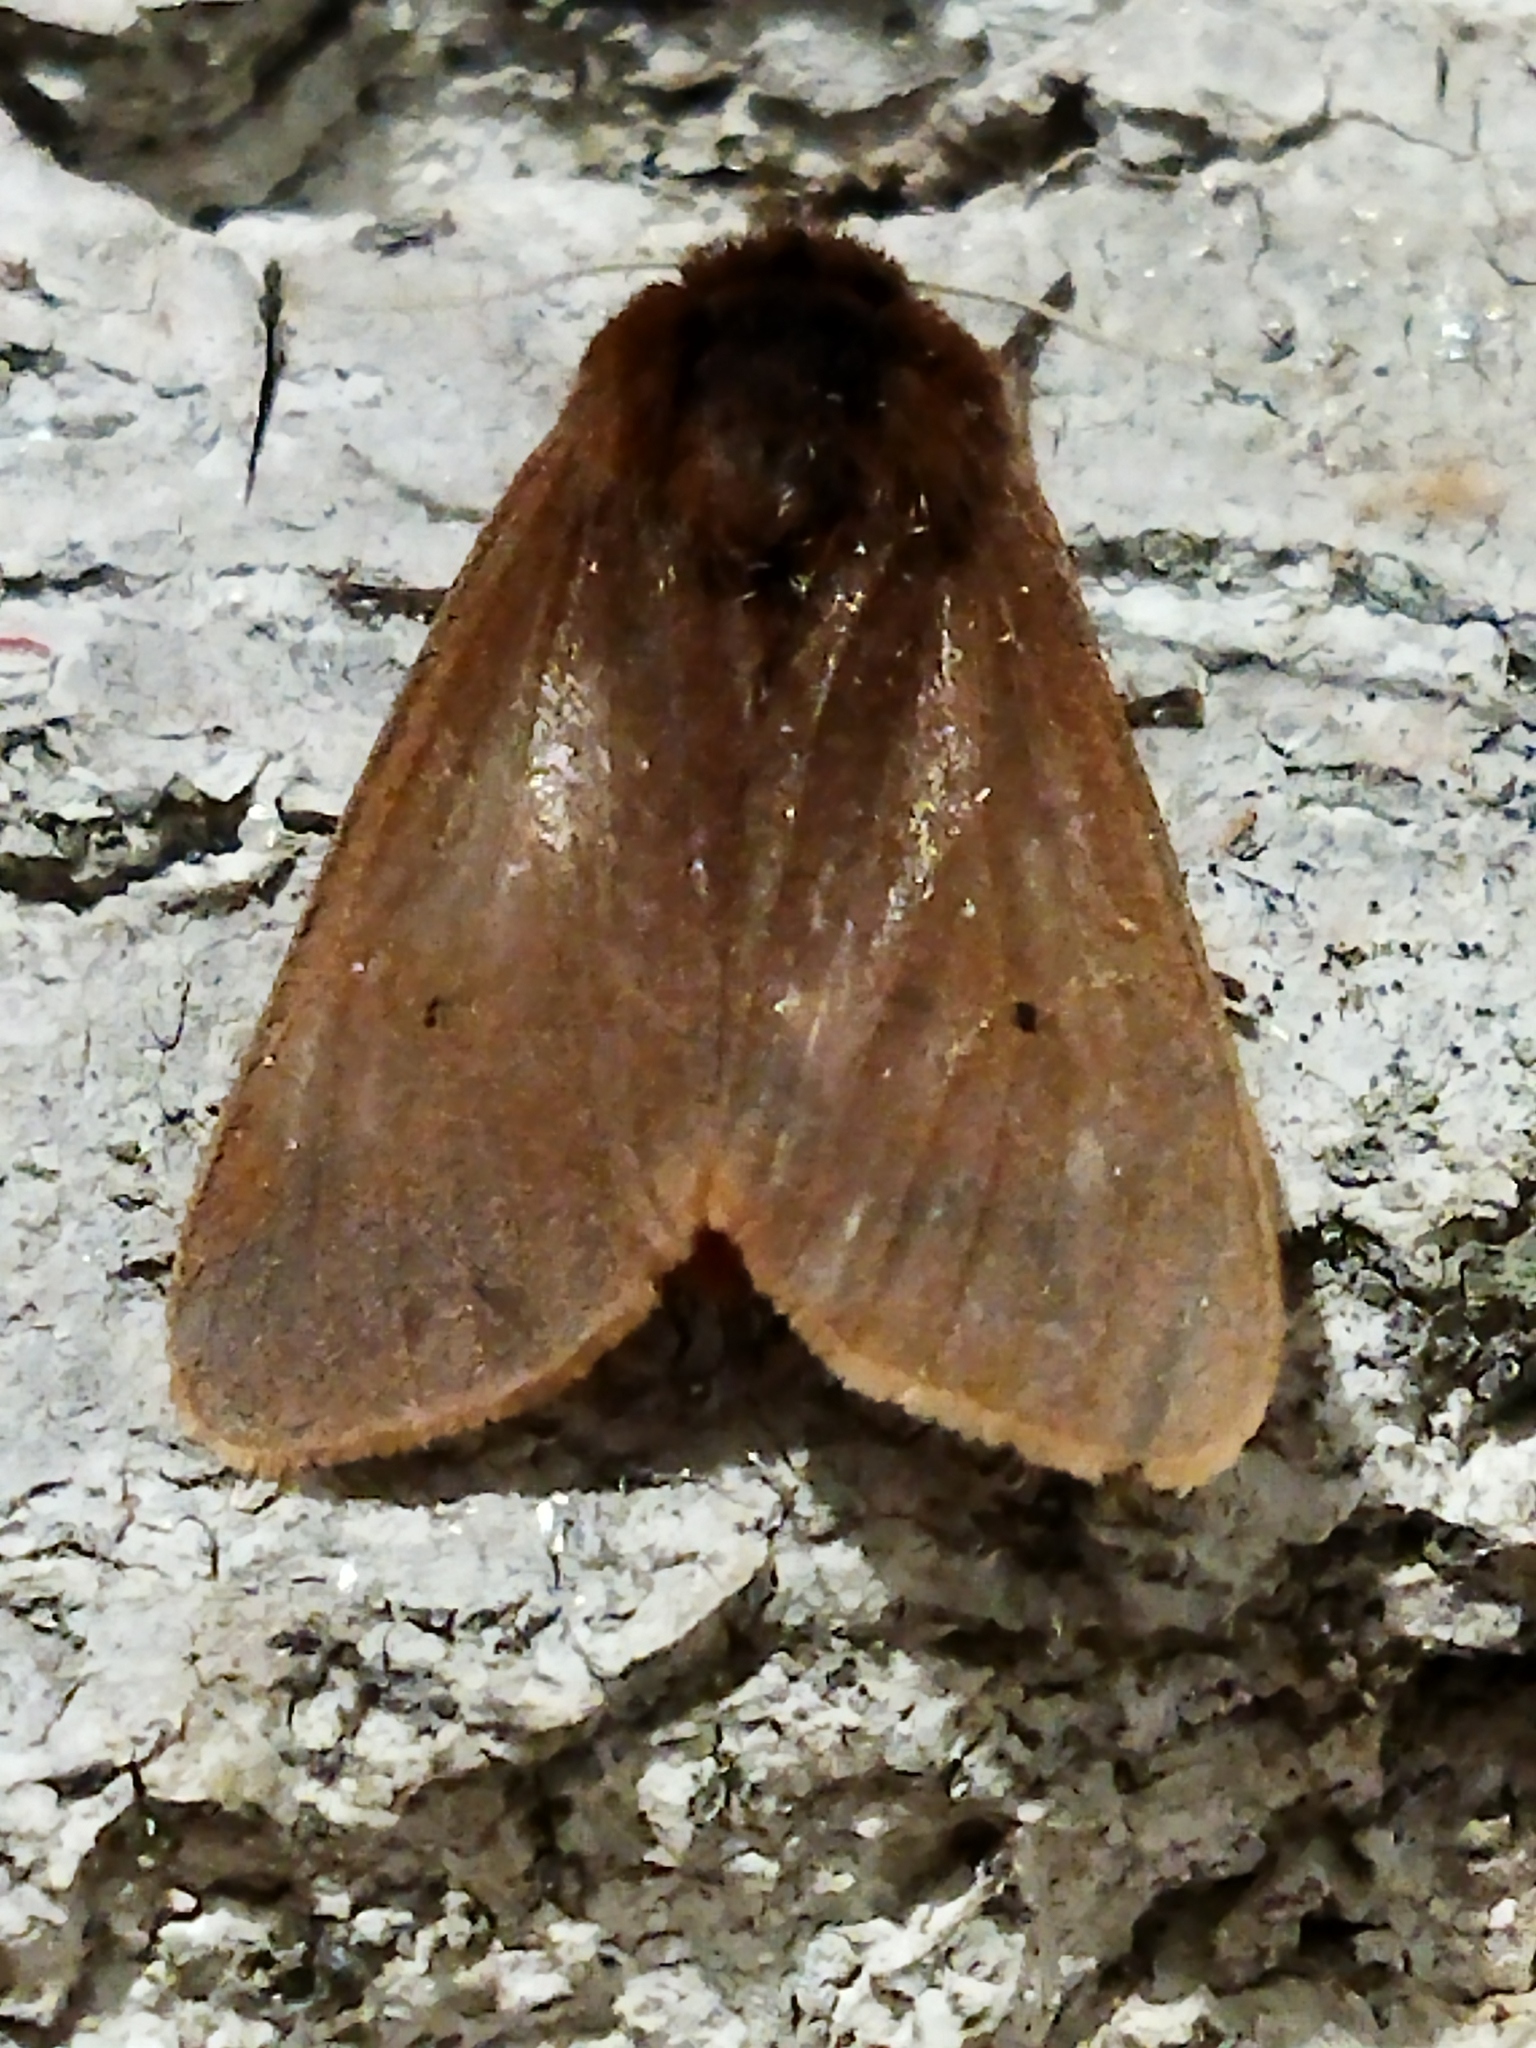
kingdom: Animalia
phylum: Arthropoda
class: Insecta
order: Lepidoptera
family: Erebidae
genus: Phragmatobia
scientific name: Phragmatobia fuliginosa
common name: Ruby tiger
